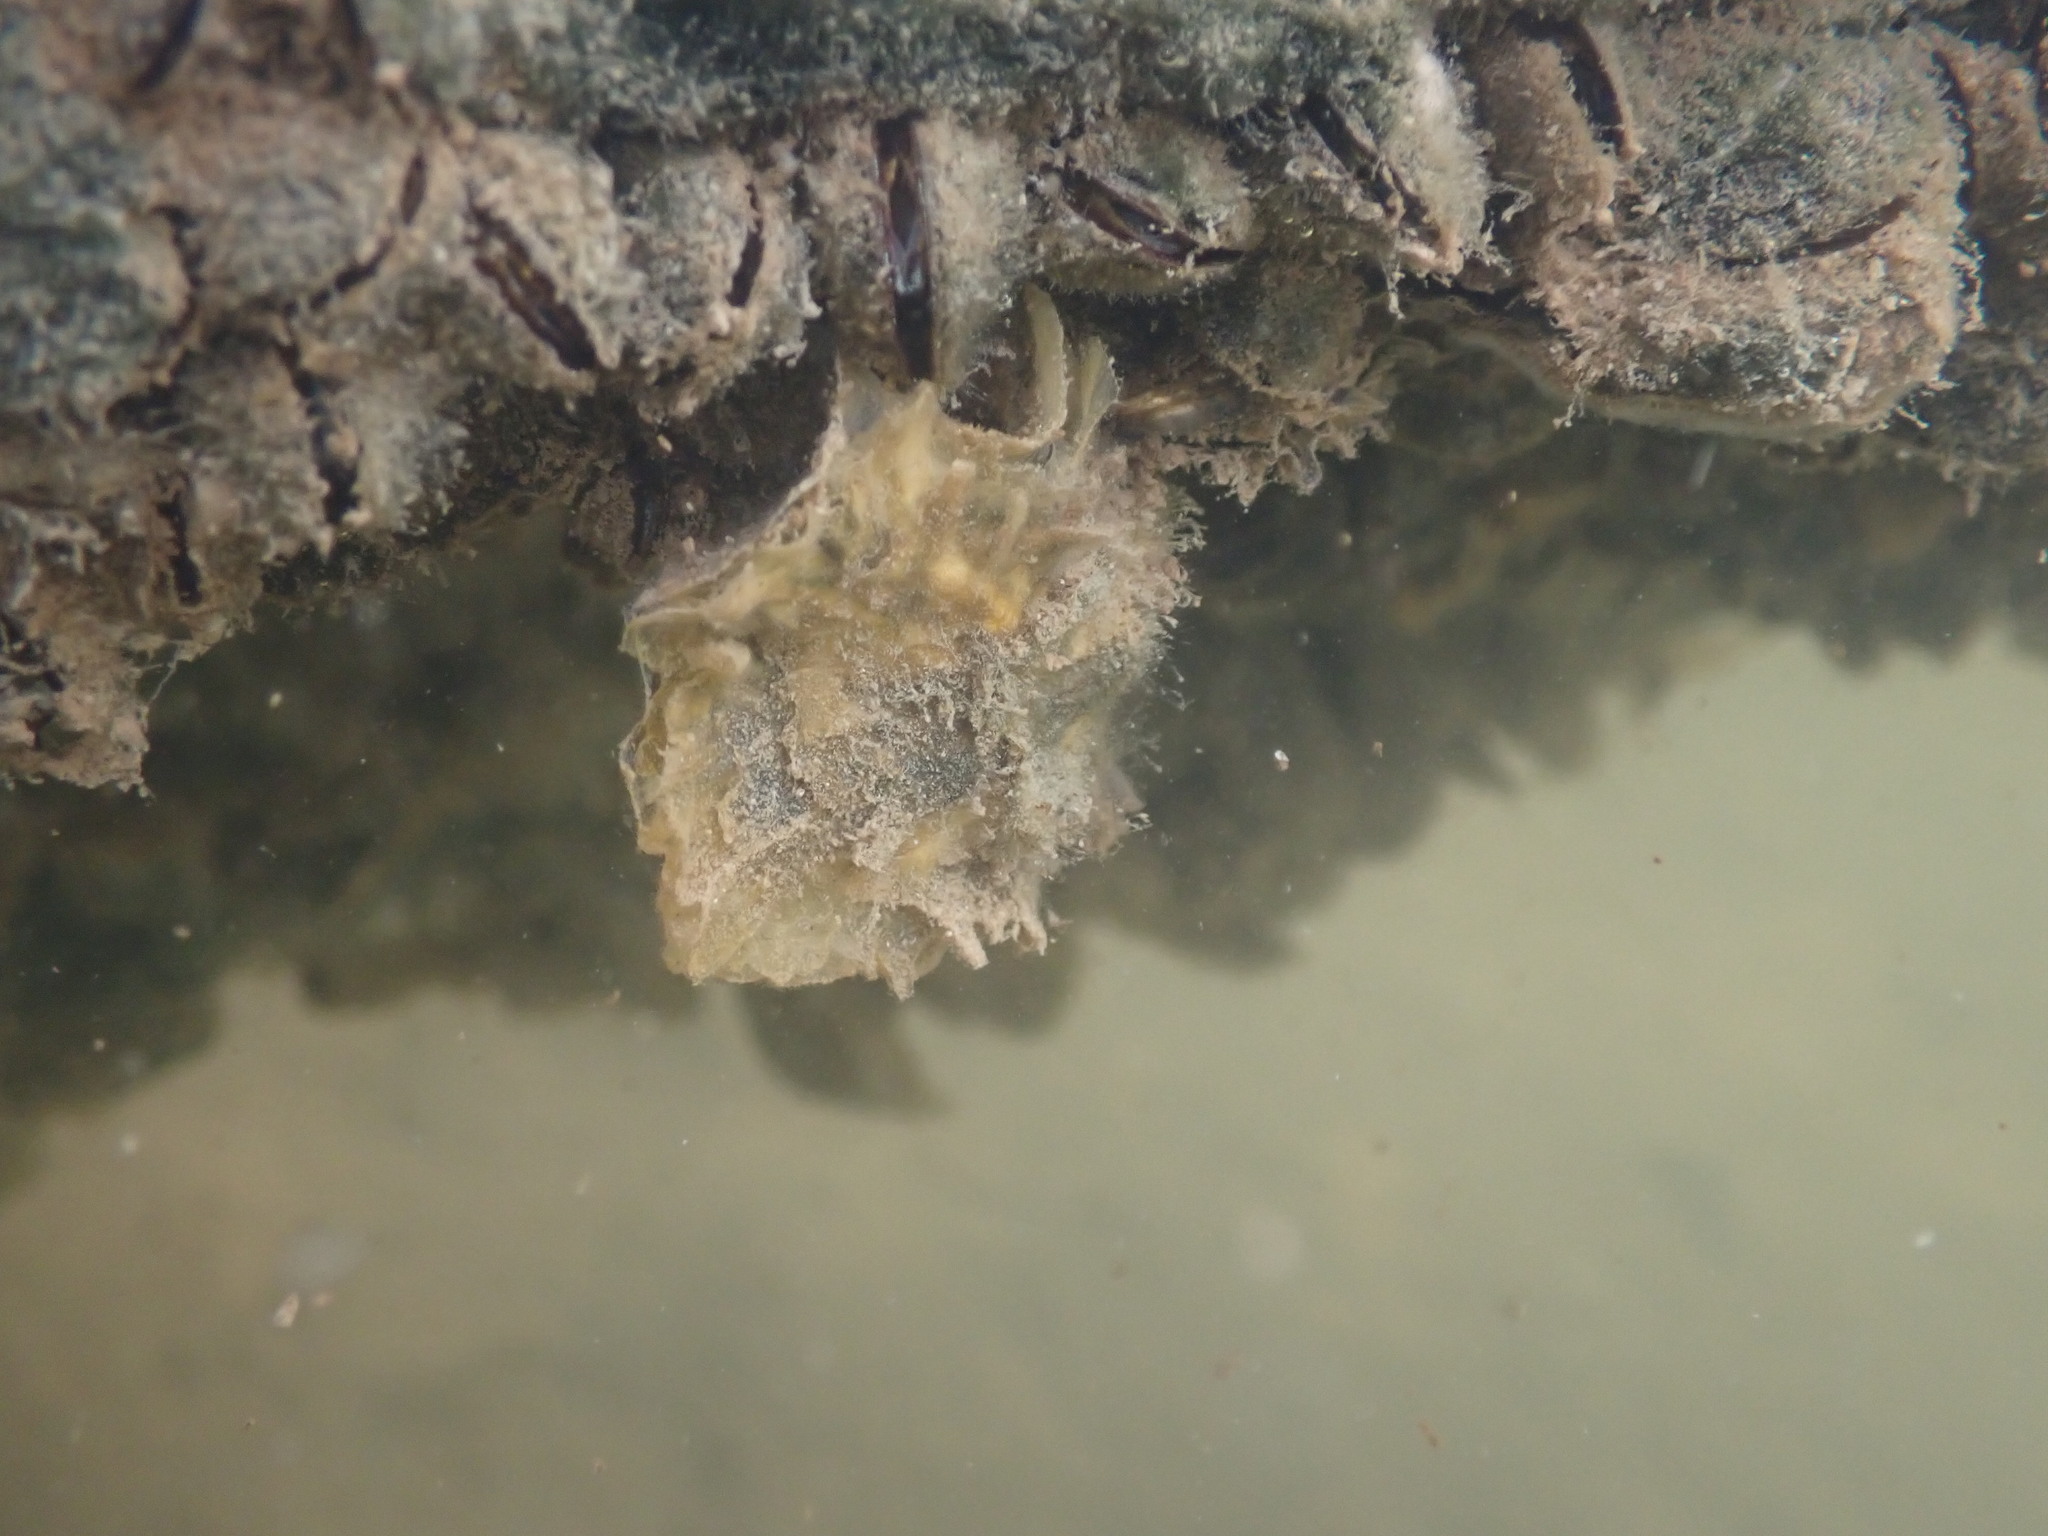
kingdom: Animalia
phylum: Mollusca
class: Bivalvia
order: Ostreida
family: Ostreidae
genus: Magallana
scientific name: Magallana gigas
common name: Pacific oyster
